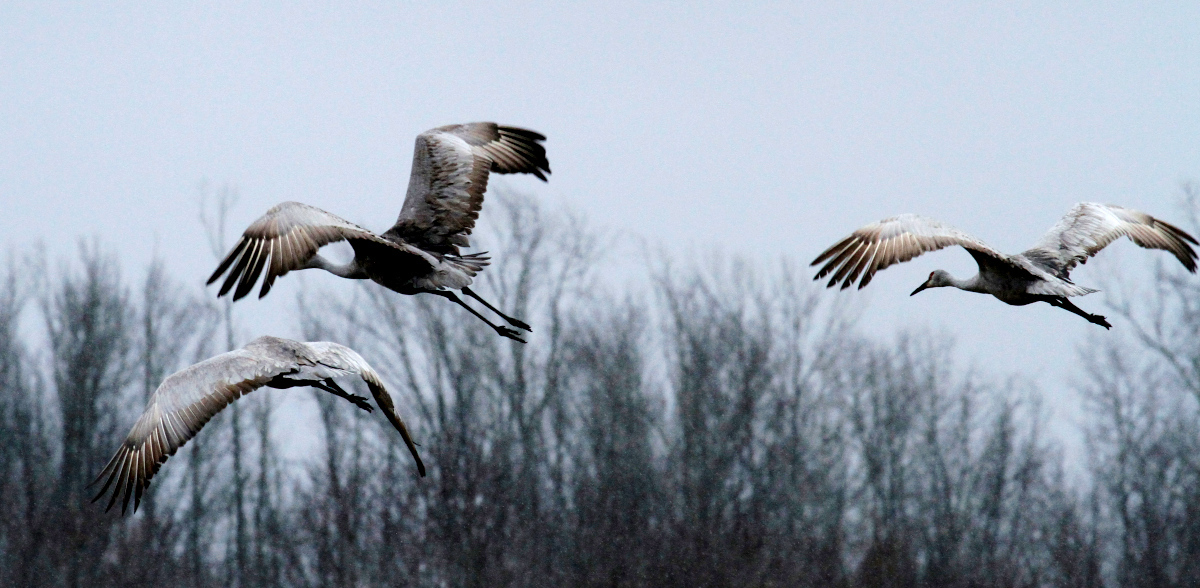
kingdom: Animalia
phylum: Chordata
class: Aves
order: Gruiformes
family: Gruidae
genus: Grus
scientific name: Grus canadensis
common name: Sandhill crane
